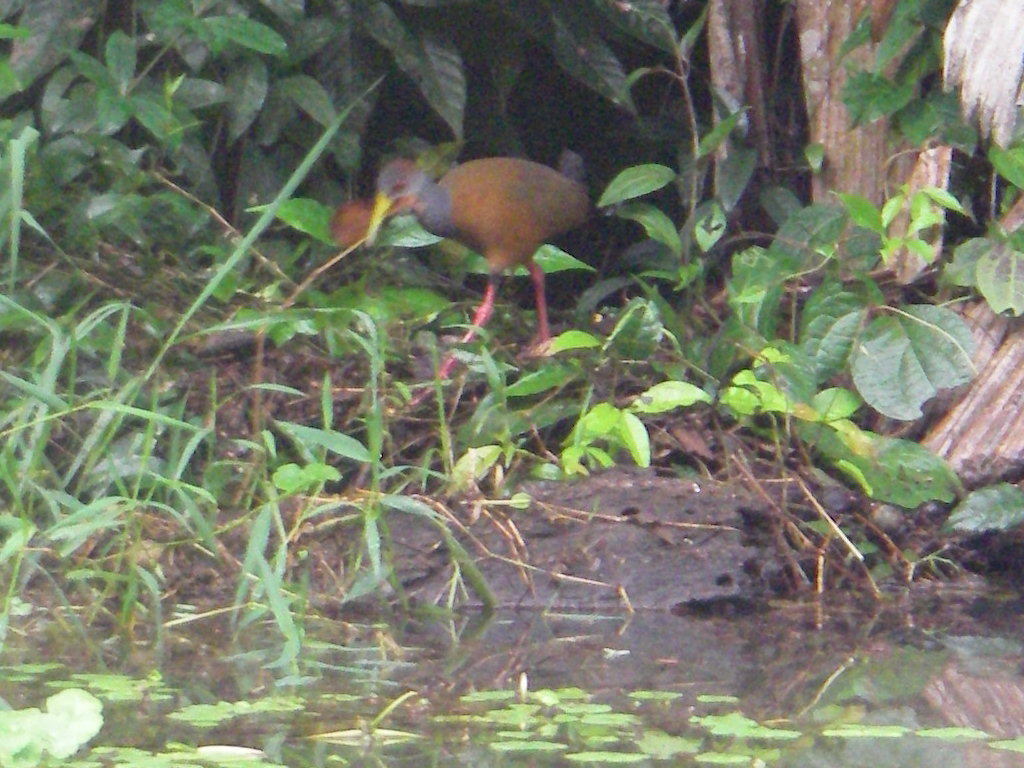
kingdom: Animalia
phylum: Chordata
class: Aves
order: Gruiformes
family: Rallidae
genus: Aramides
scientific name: Aramides albiventris
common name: Russet-naped wood-rail
